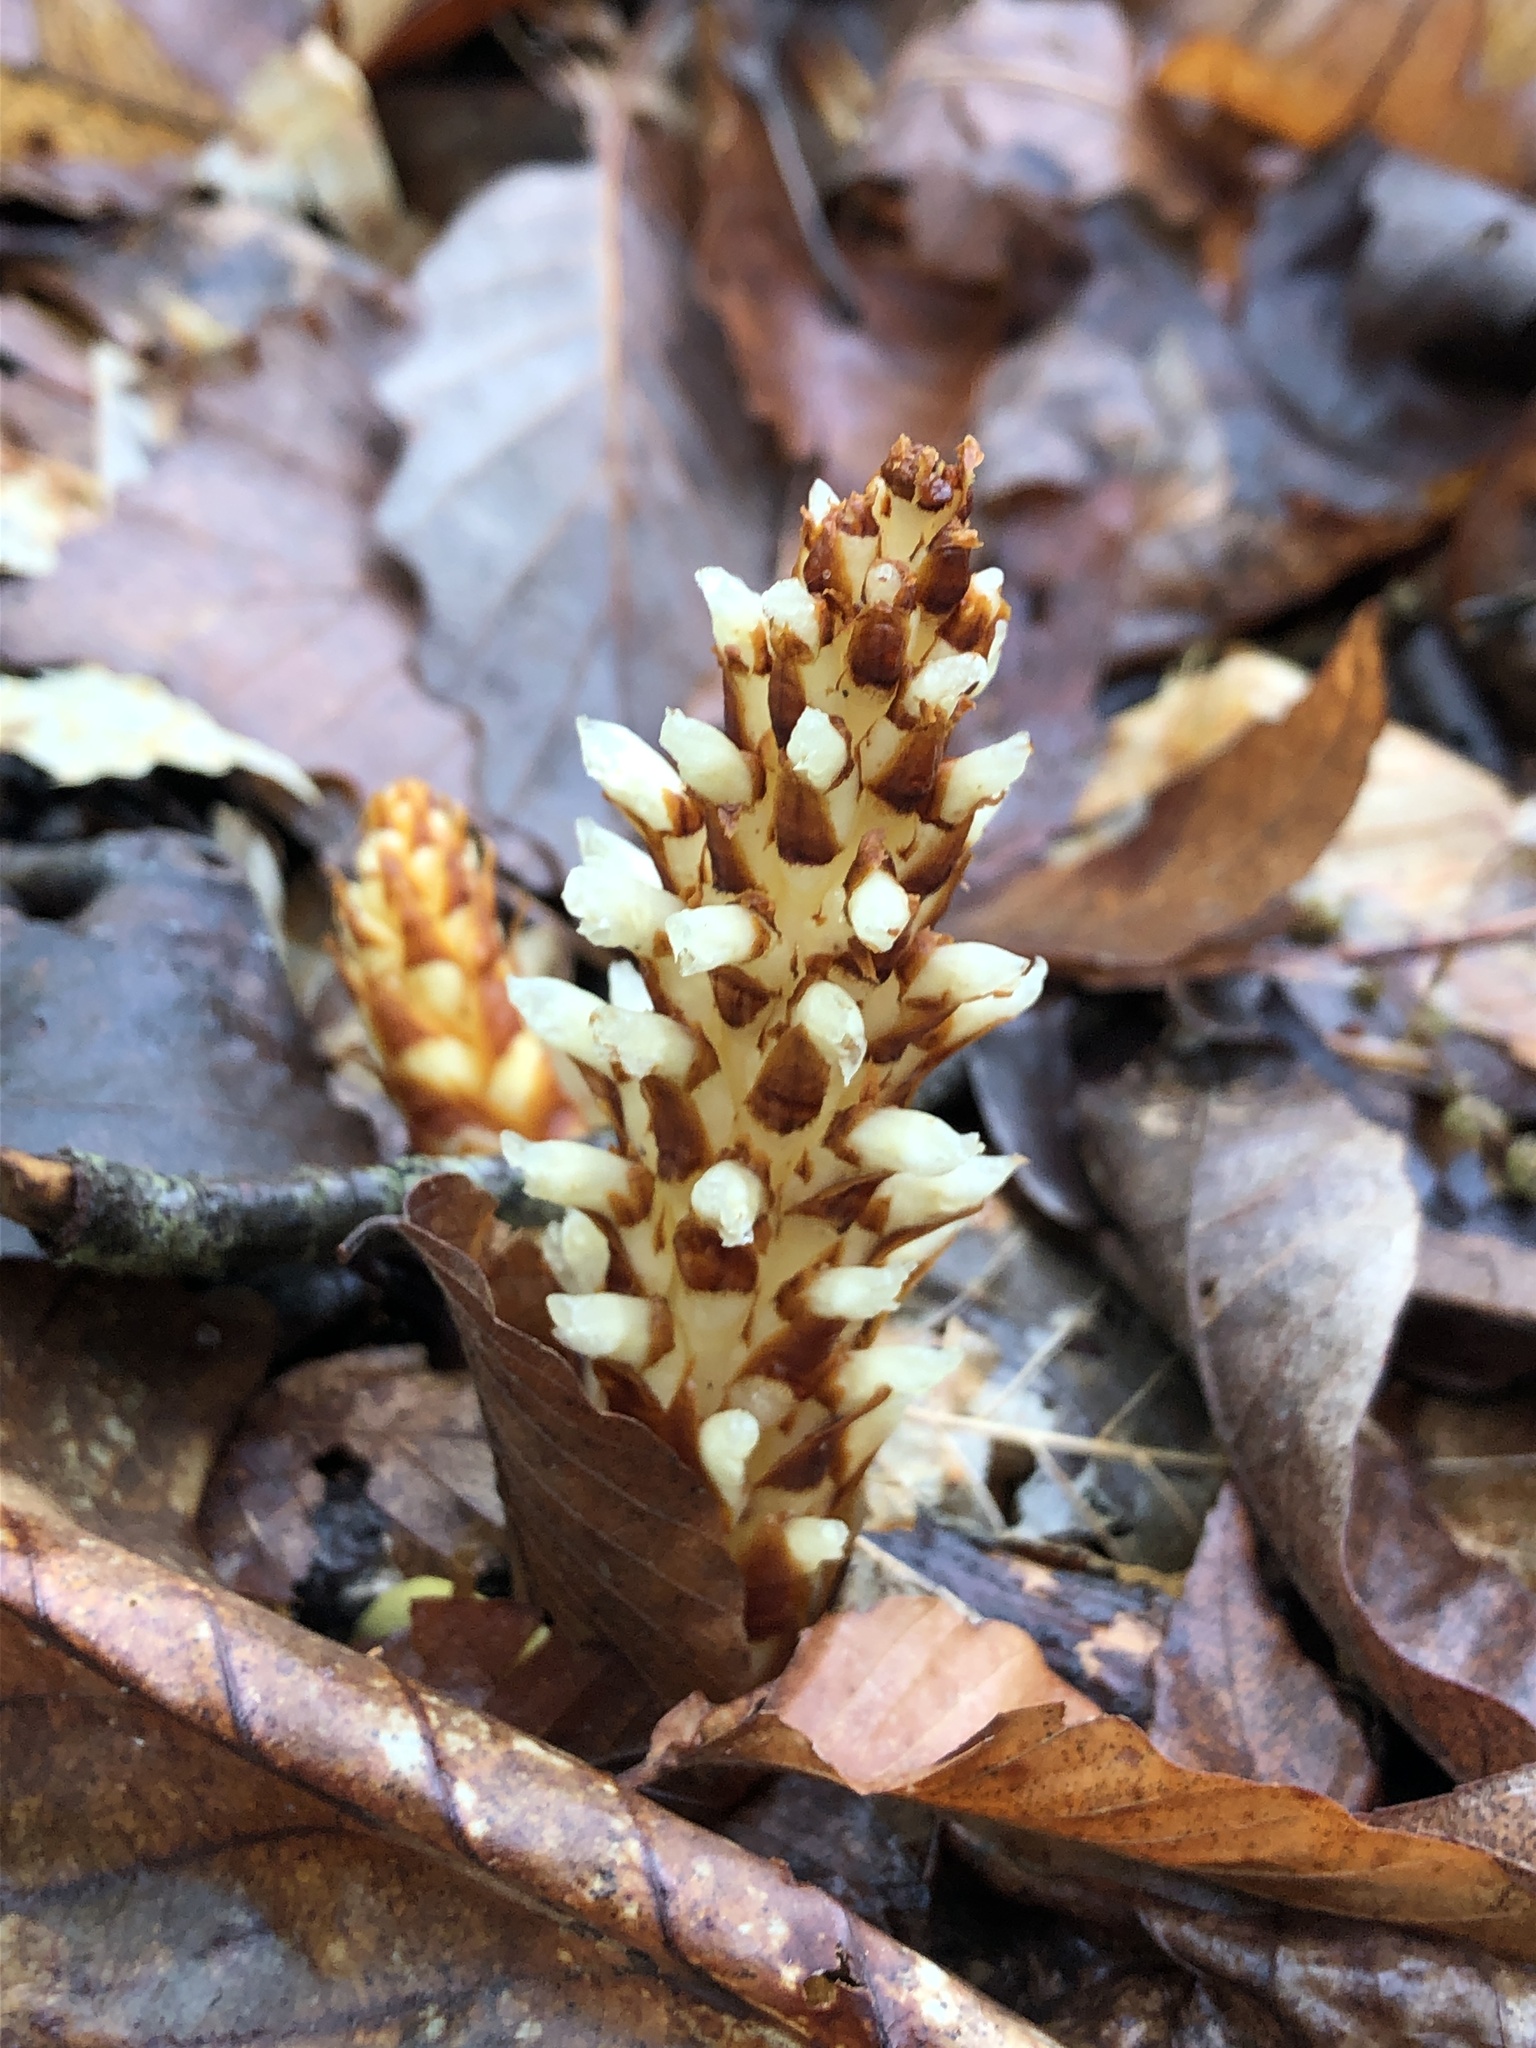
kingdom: Plantae
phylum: Tracheophyta
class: Magnoliopsida
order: Lamiales
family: Orobanchaceae
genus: Conopholis
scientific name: Conopholis americana
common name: American cancer-root
